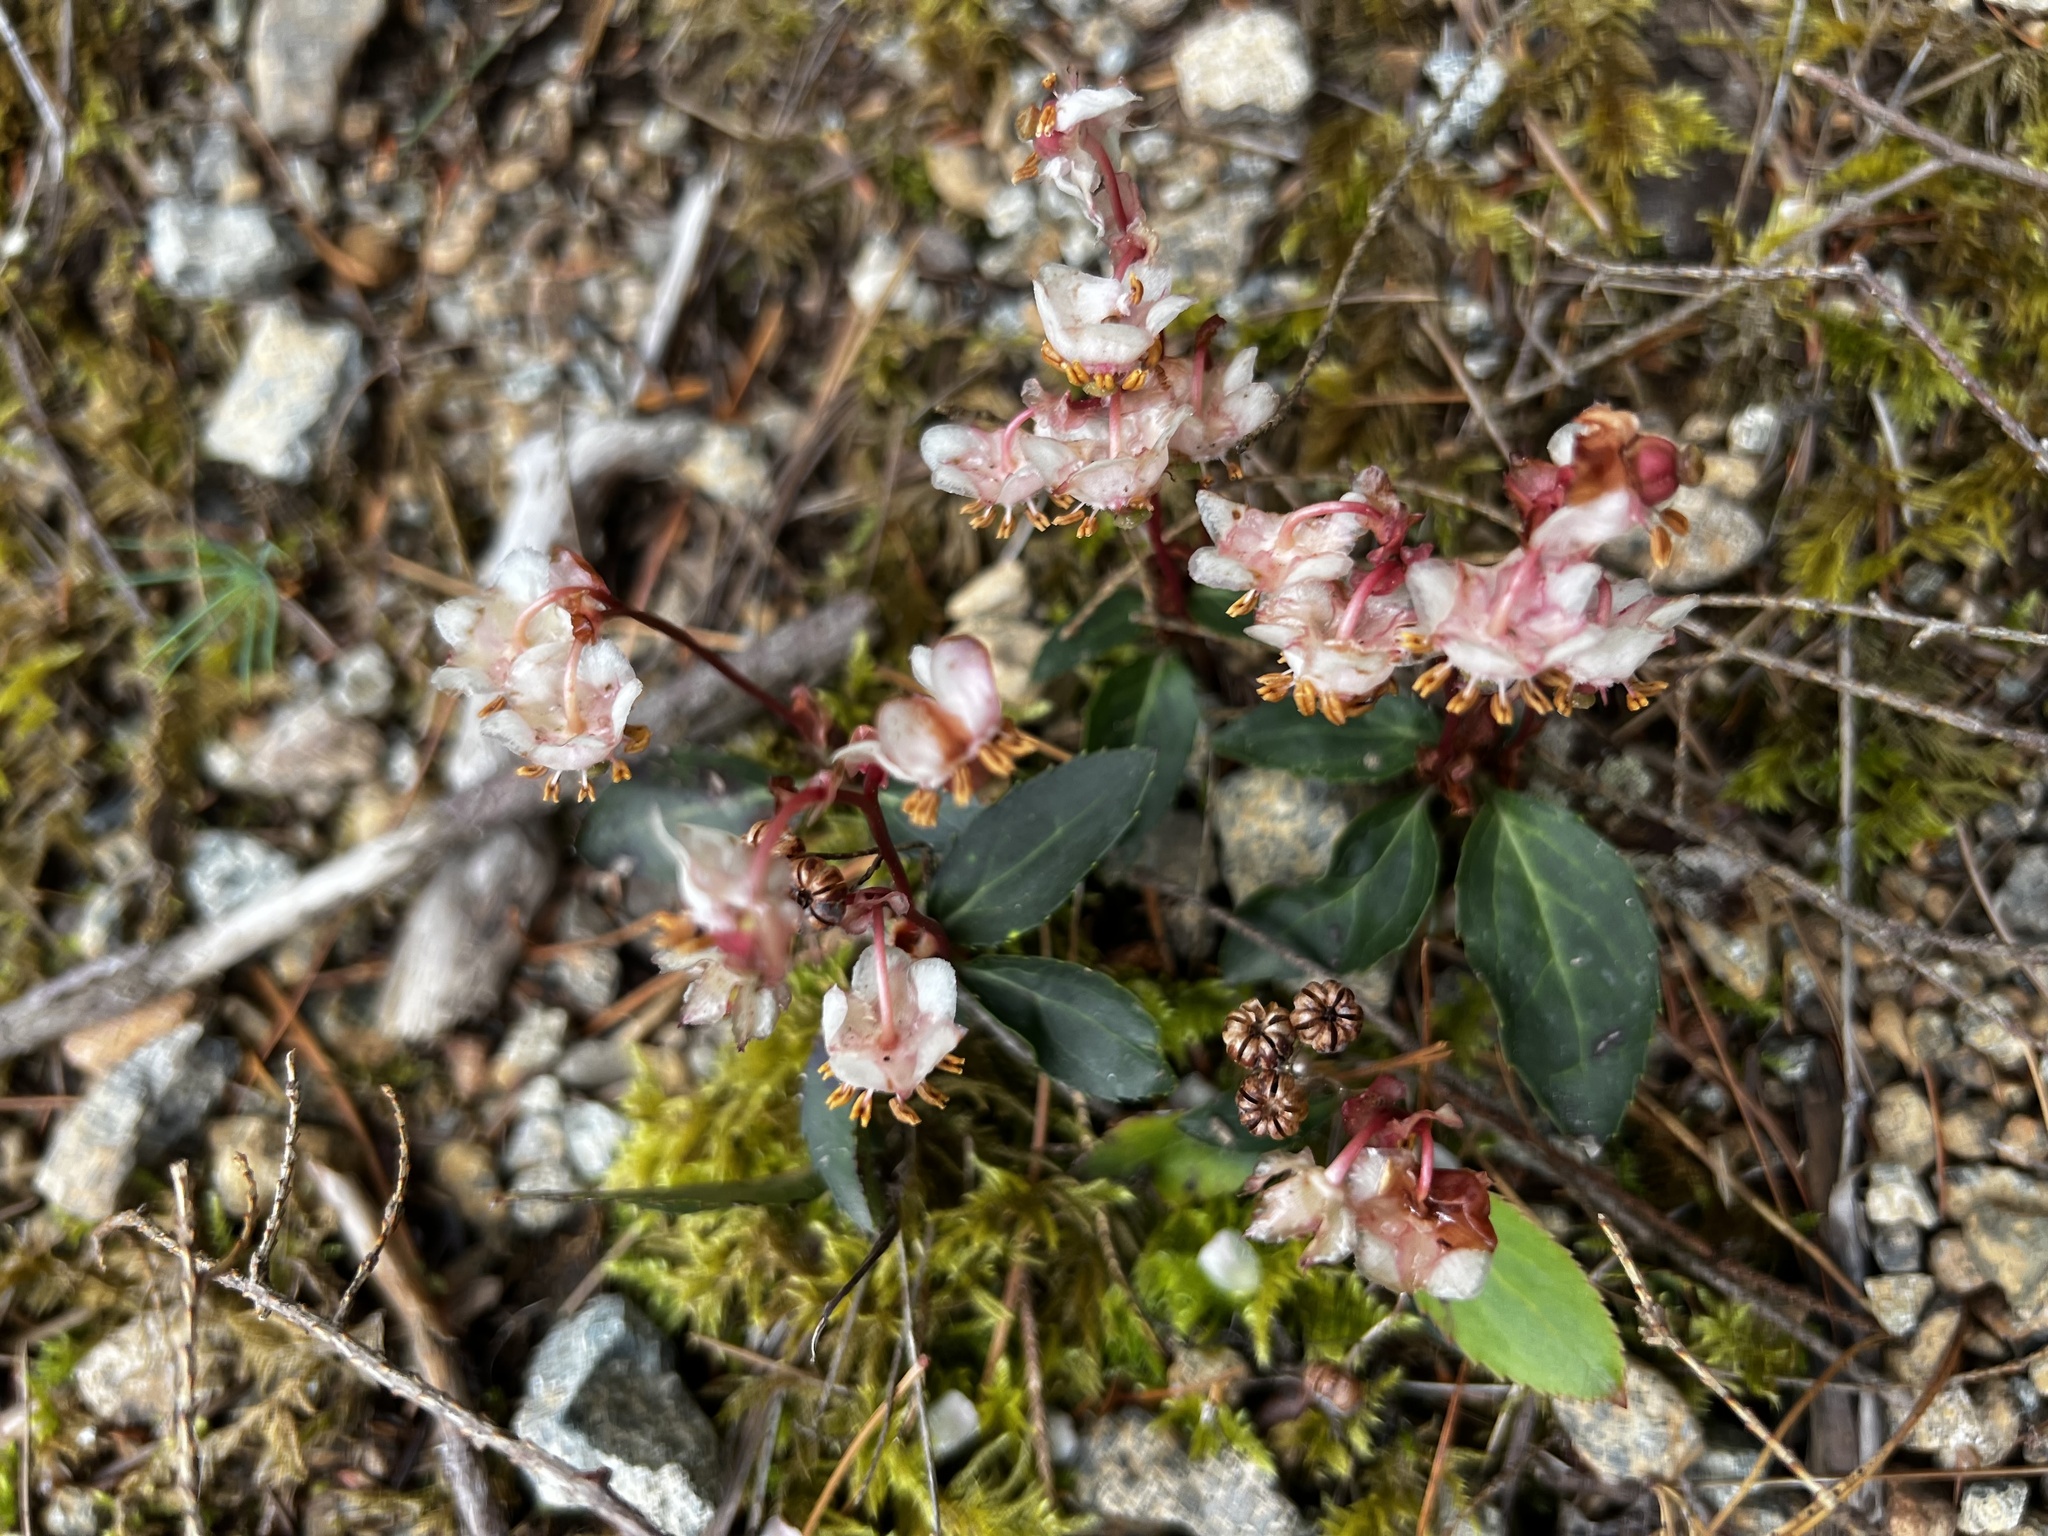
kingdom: Plantae
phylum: Tracheophyta
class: Magnoliopsida
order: Ericales
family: Ericaceae
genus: Chimaphila
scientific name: Chimaphila menziesii
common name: Menzies' pipsissewa
